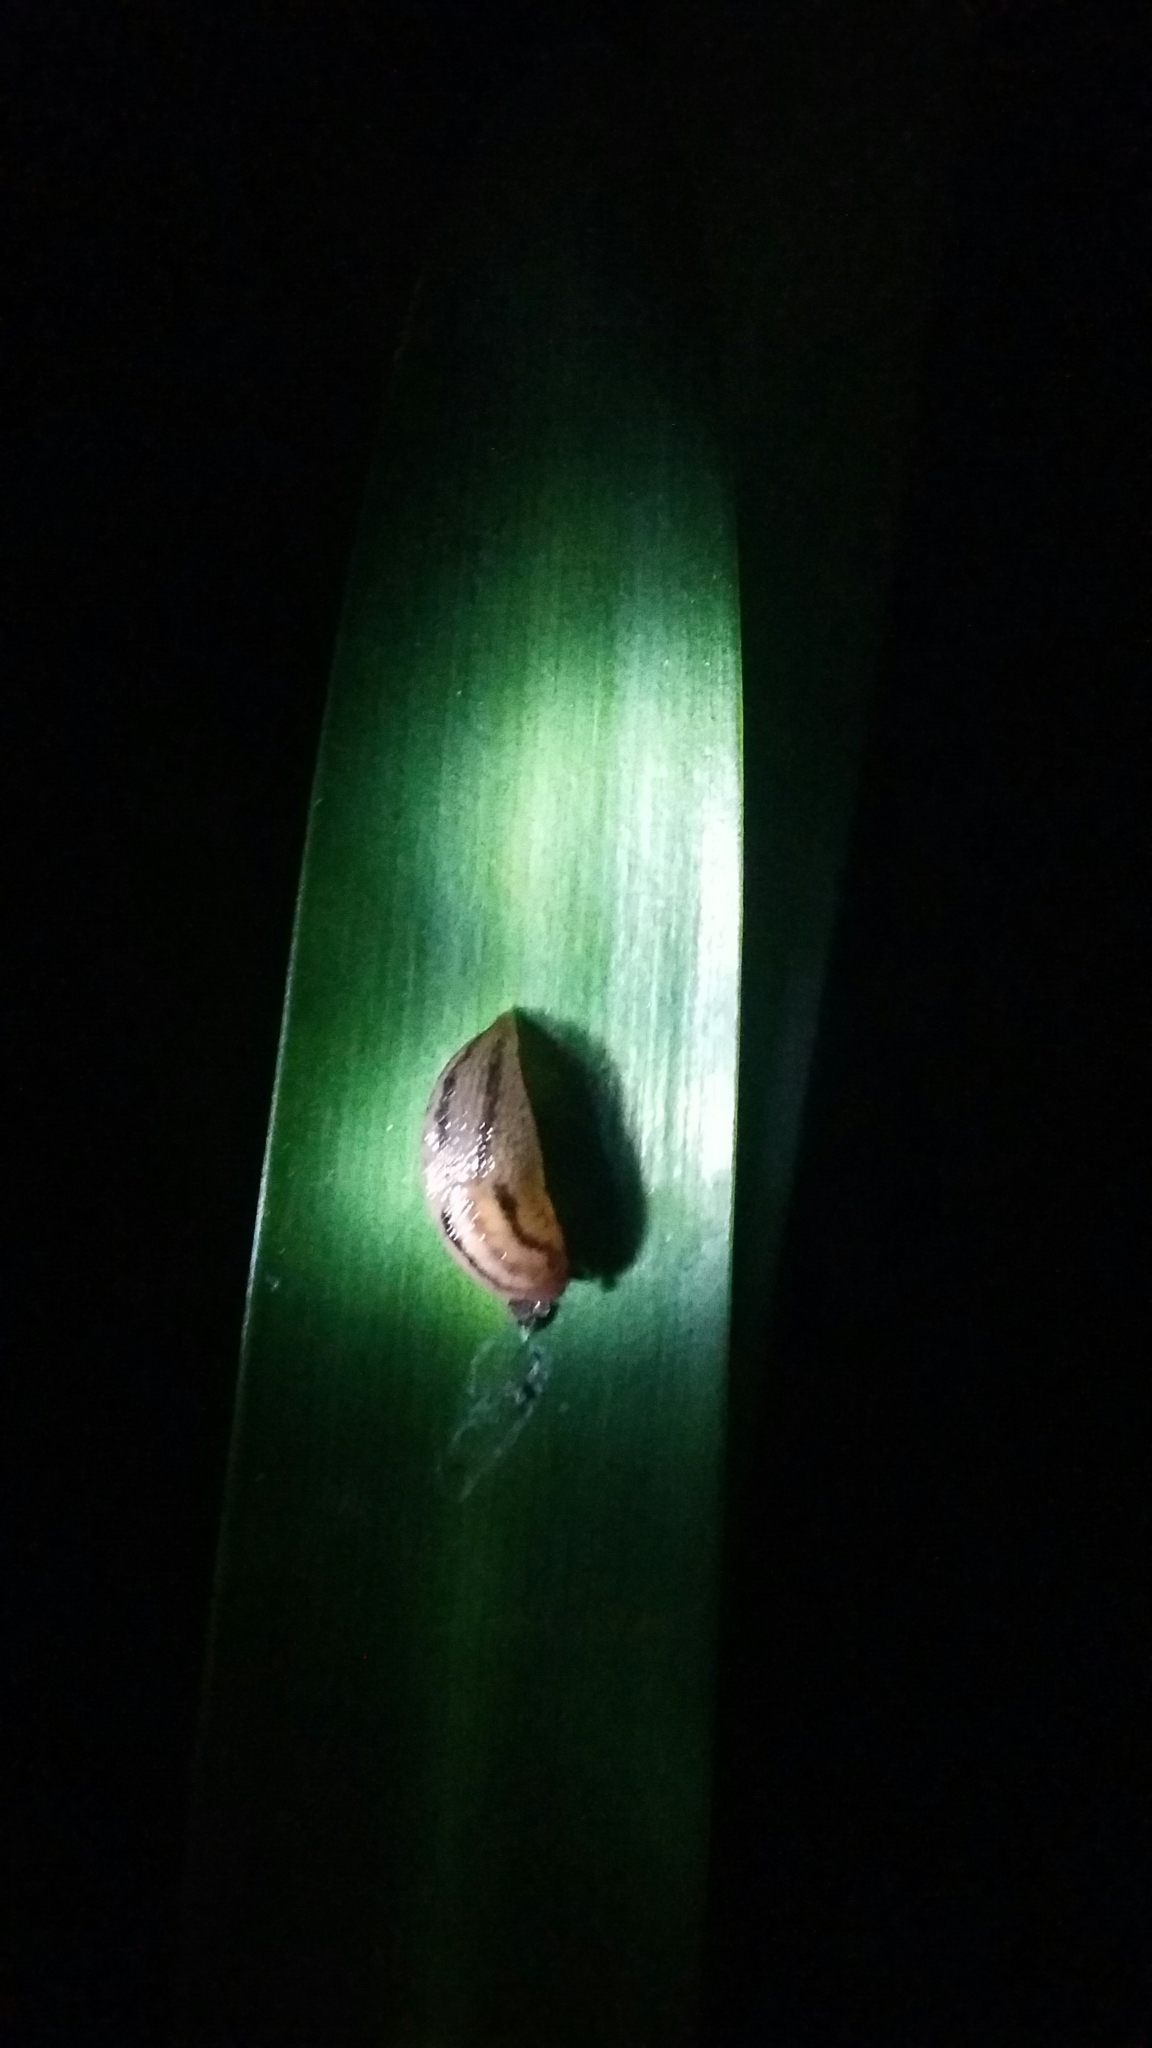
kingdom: Animalia
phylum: Mollusca
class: Gastropoda
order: Stylommatophora
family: Limacidae
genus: Ambigolimax
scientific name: Ambigolimax
